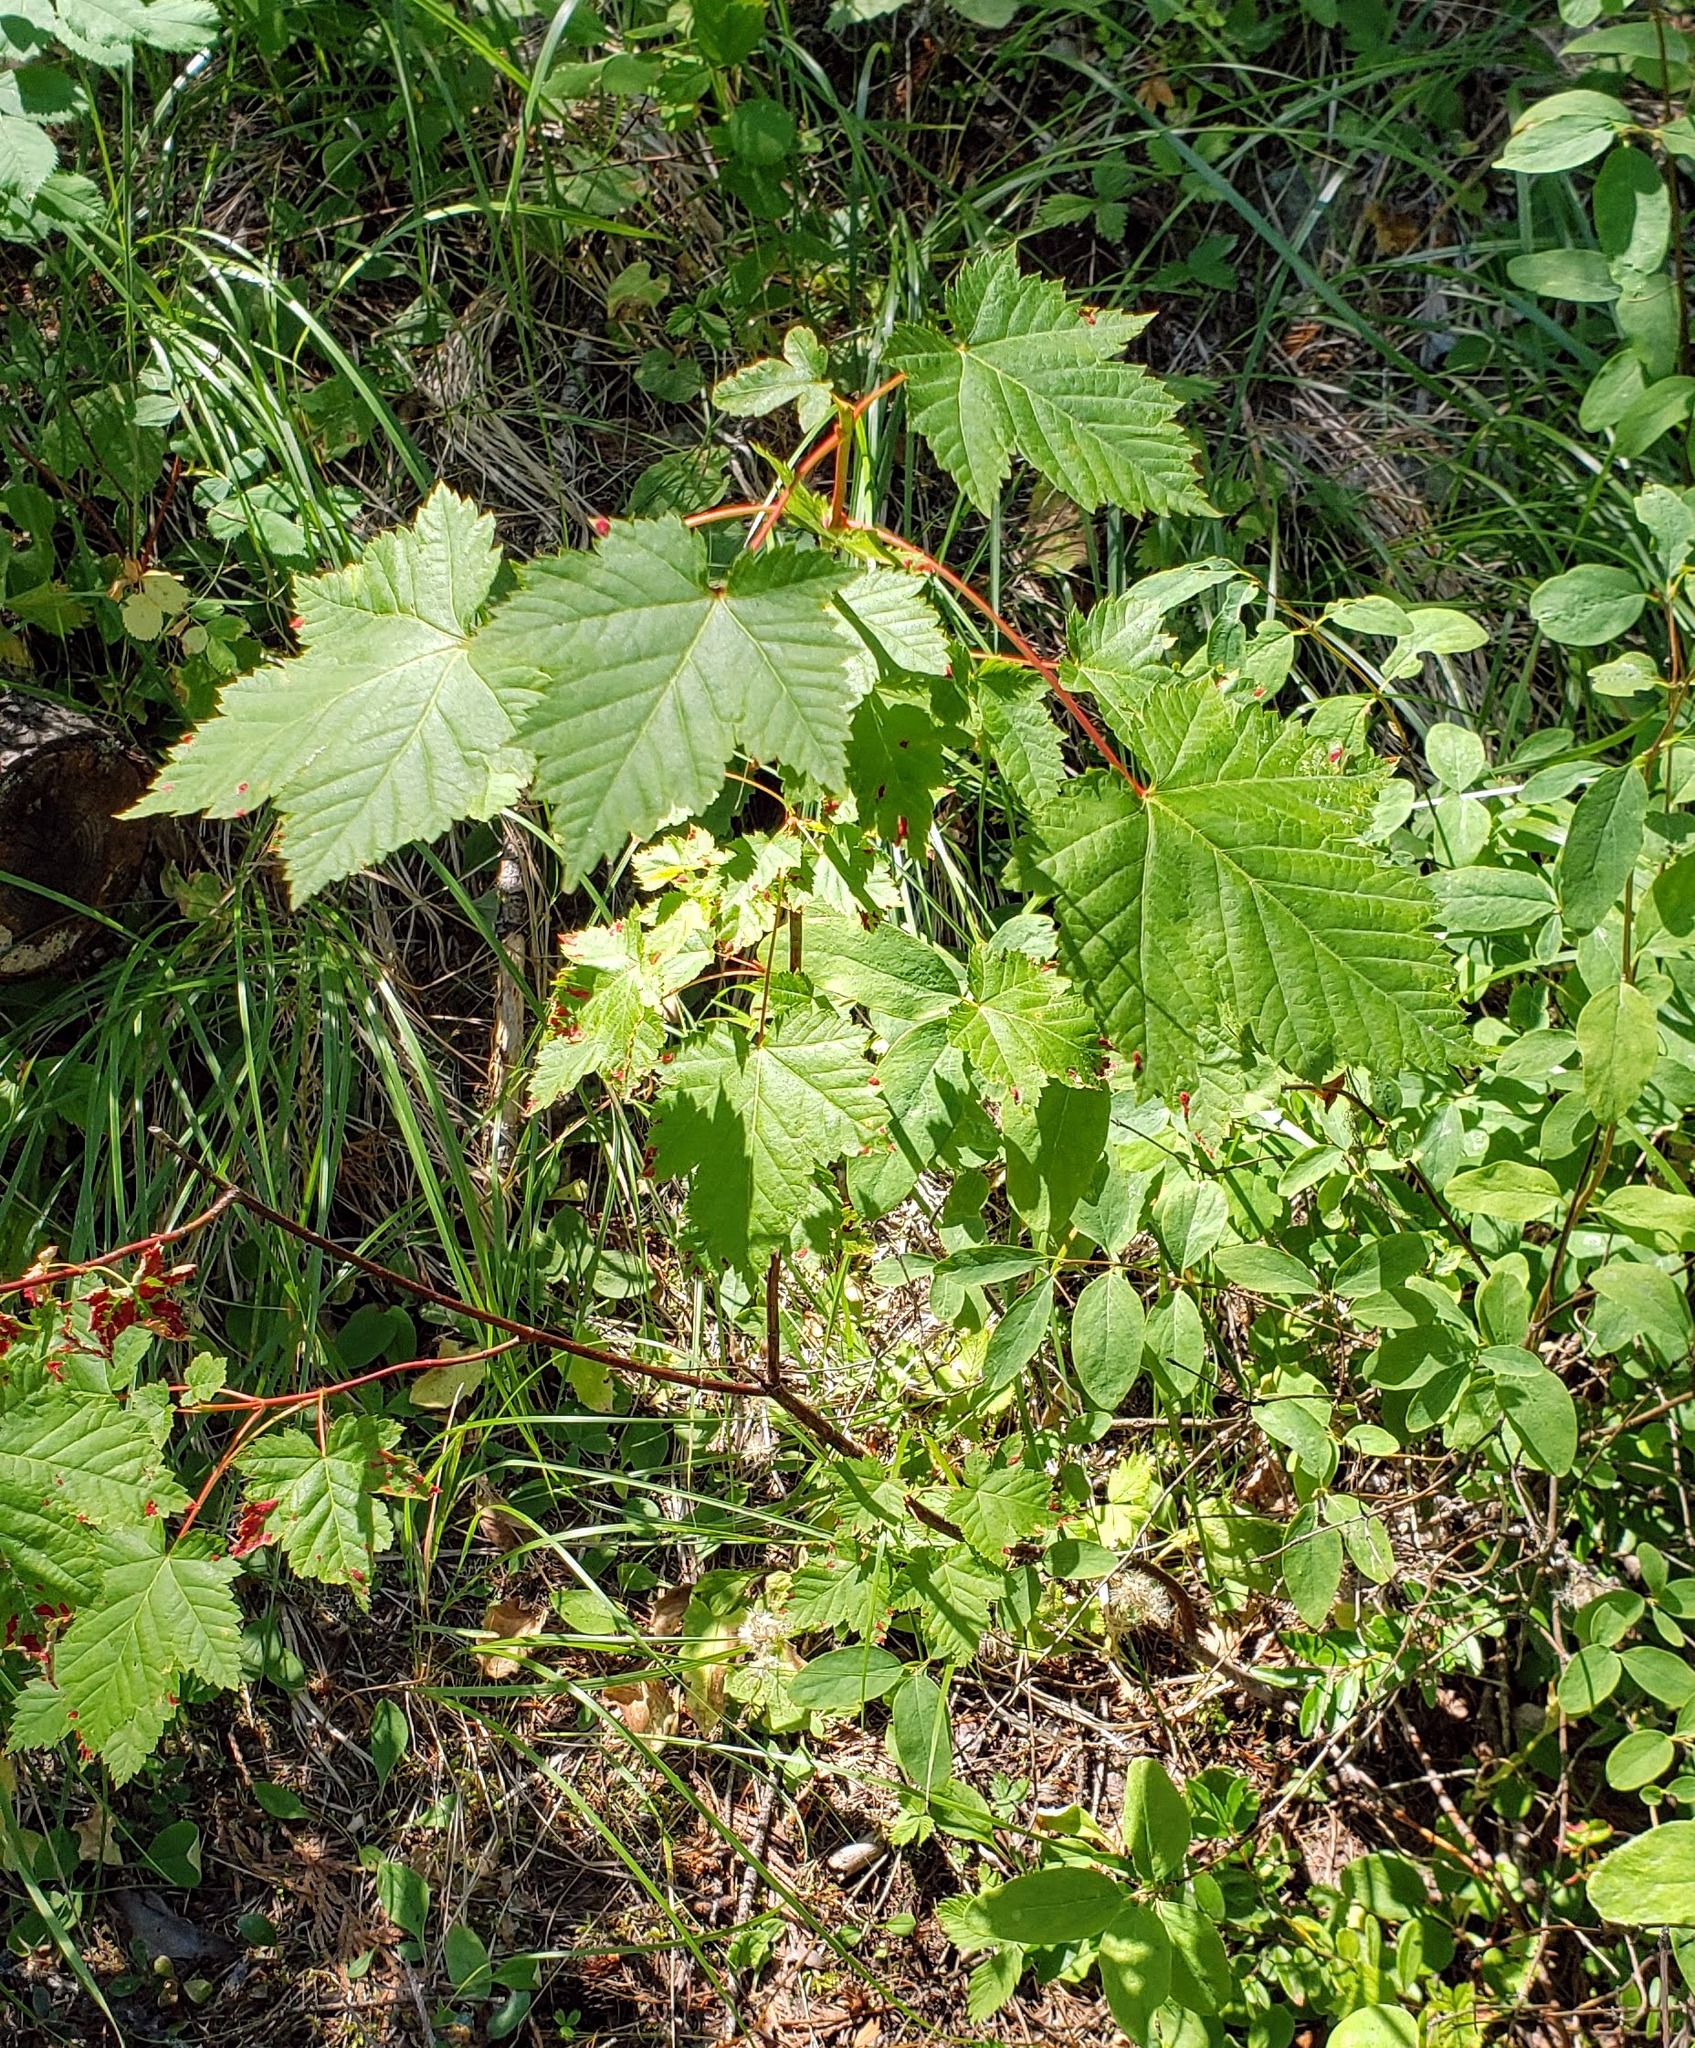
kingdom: Plantae
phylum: Tracheophyta
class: Magnoliopsida
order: Sapindales
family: Sapindaceae
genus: Acer
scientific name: Acer glabrum
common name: Rocky mountain maple
